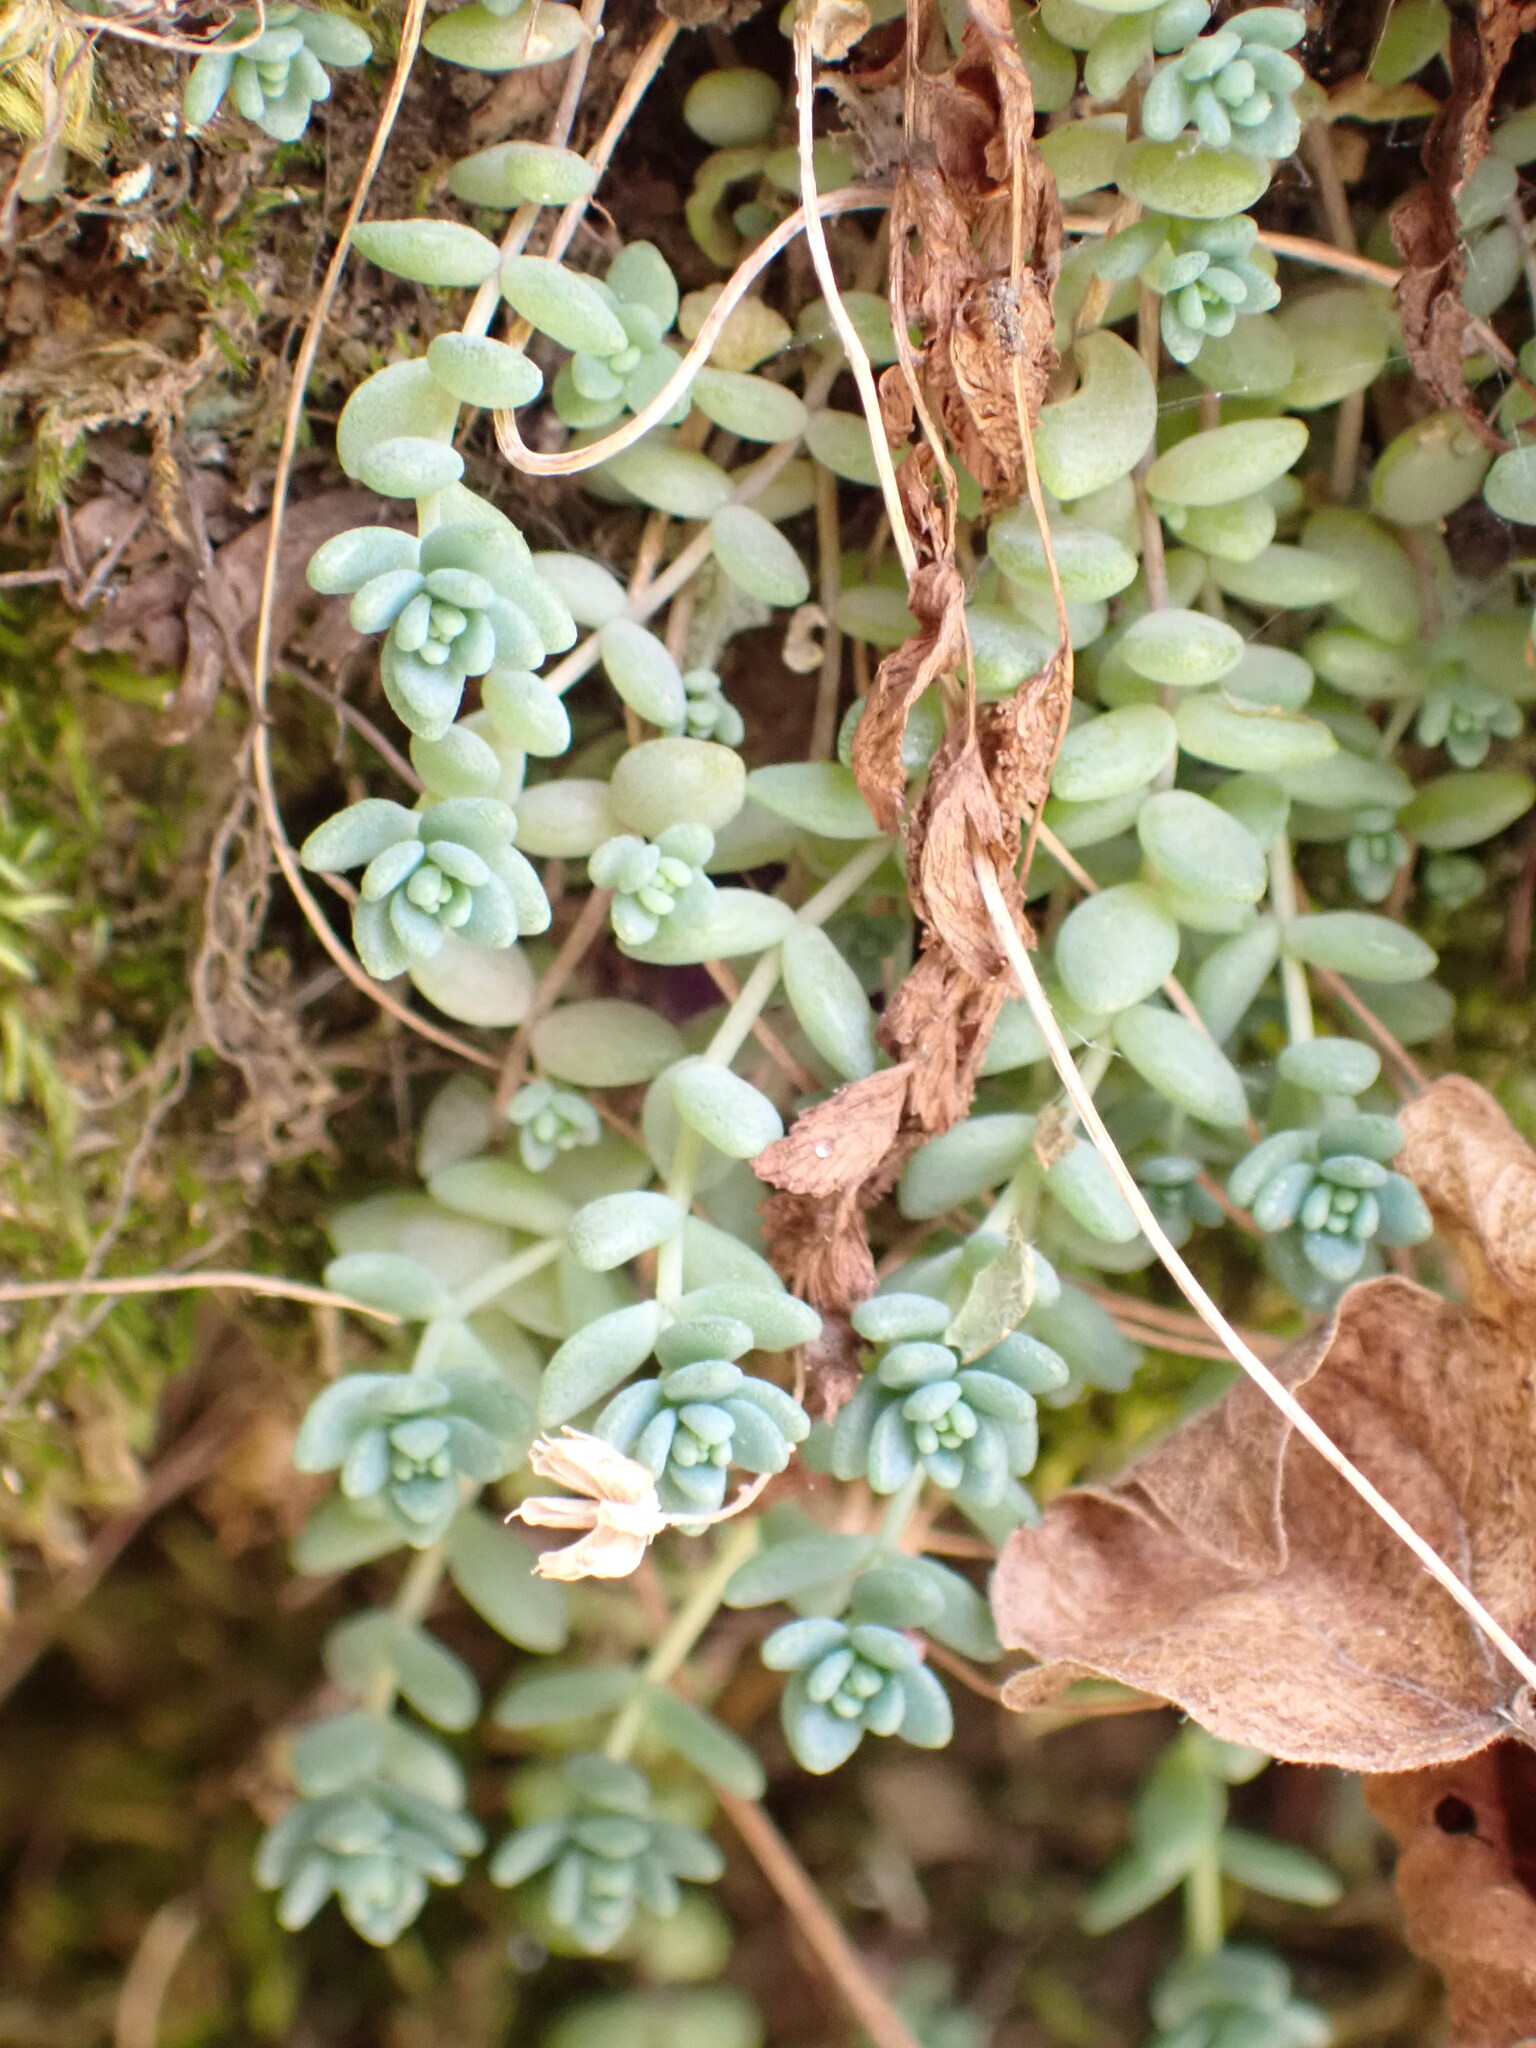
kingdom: Plantae
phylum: Tracheophyta
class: Magnoliopsida
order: Saxifragales
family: Crassulaceae
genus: Sedum
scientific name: Sedum dasyphyllum
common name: Thick-leaf stonecrop
